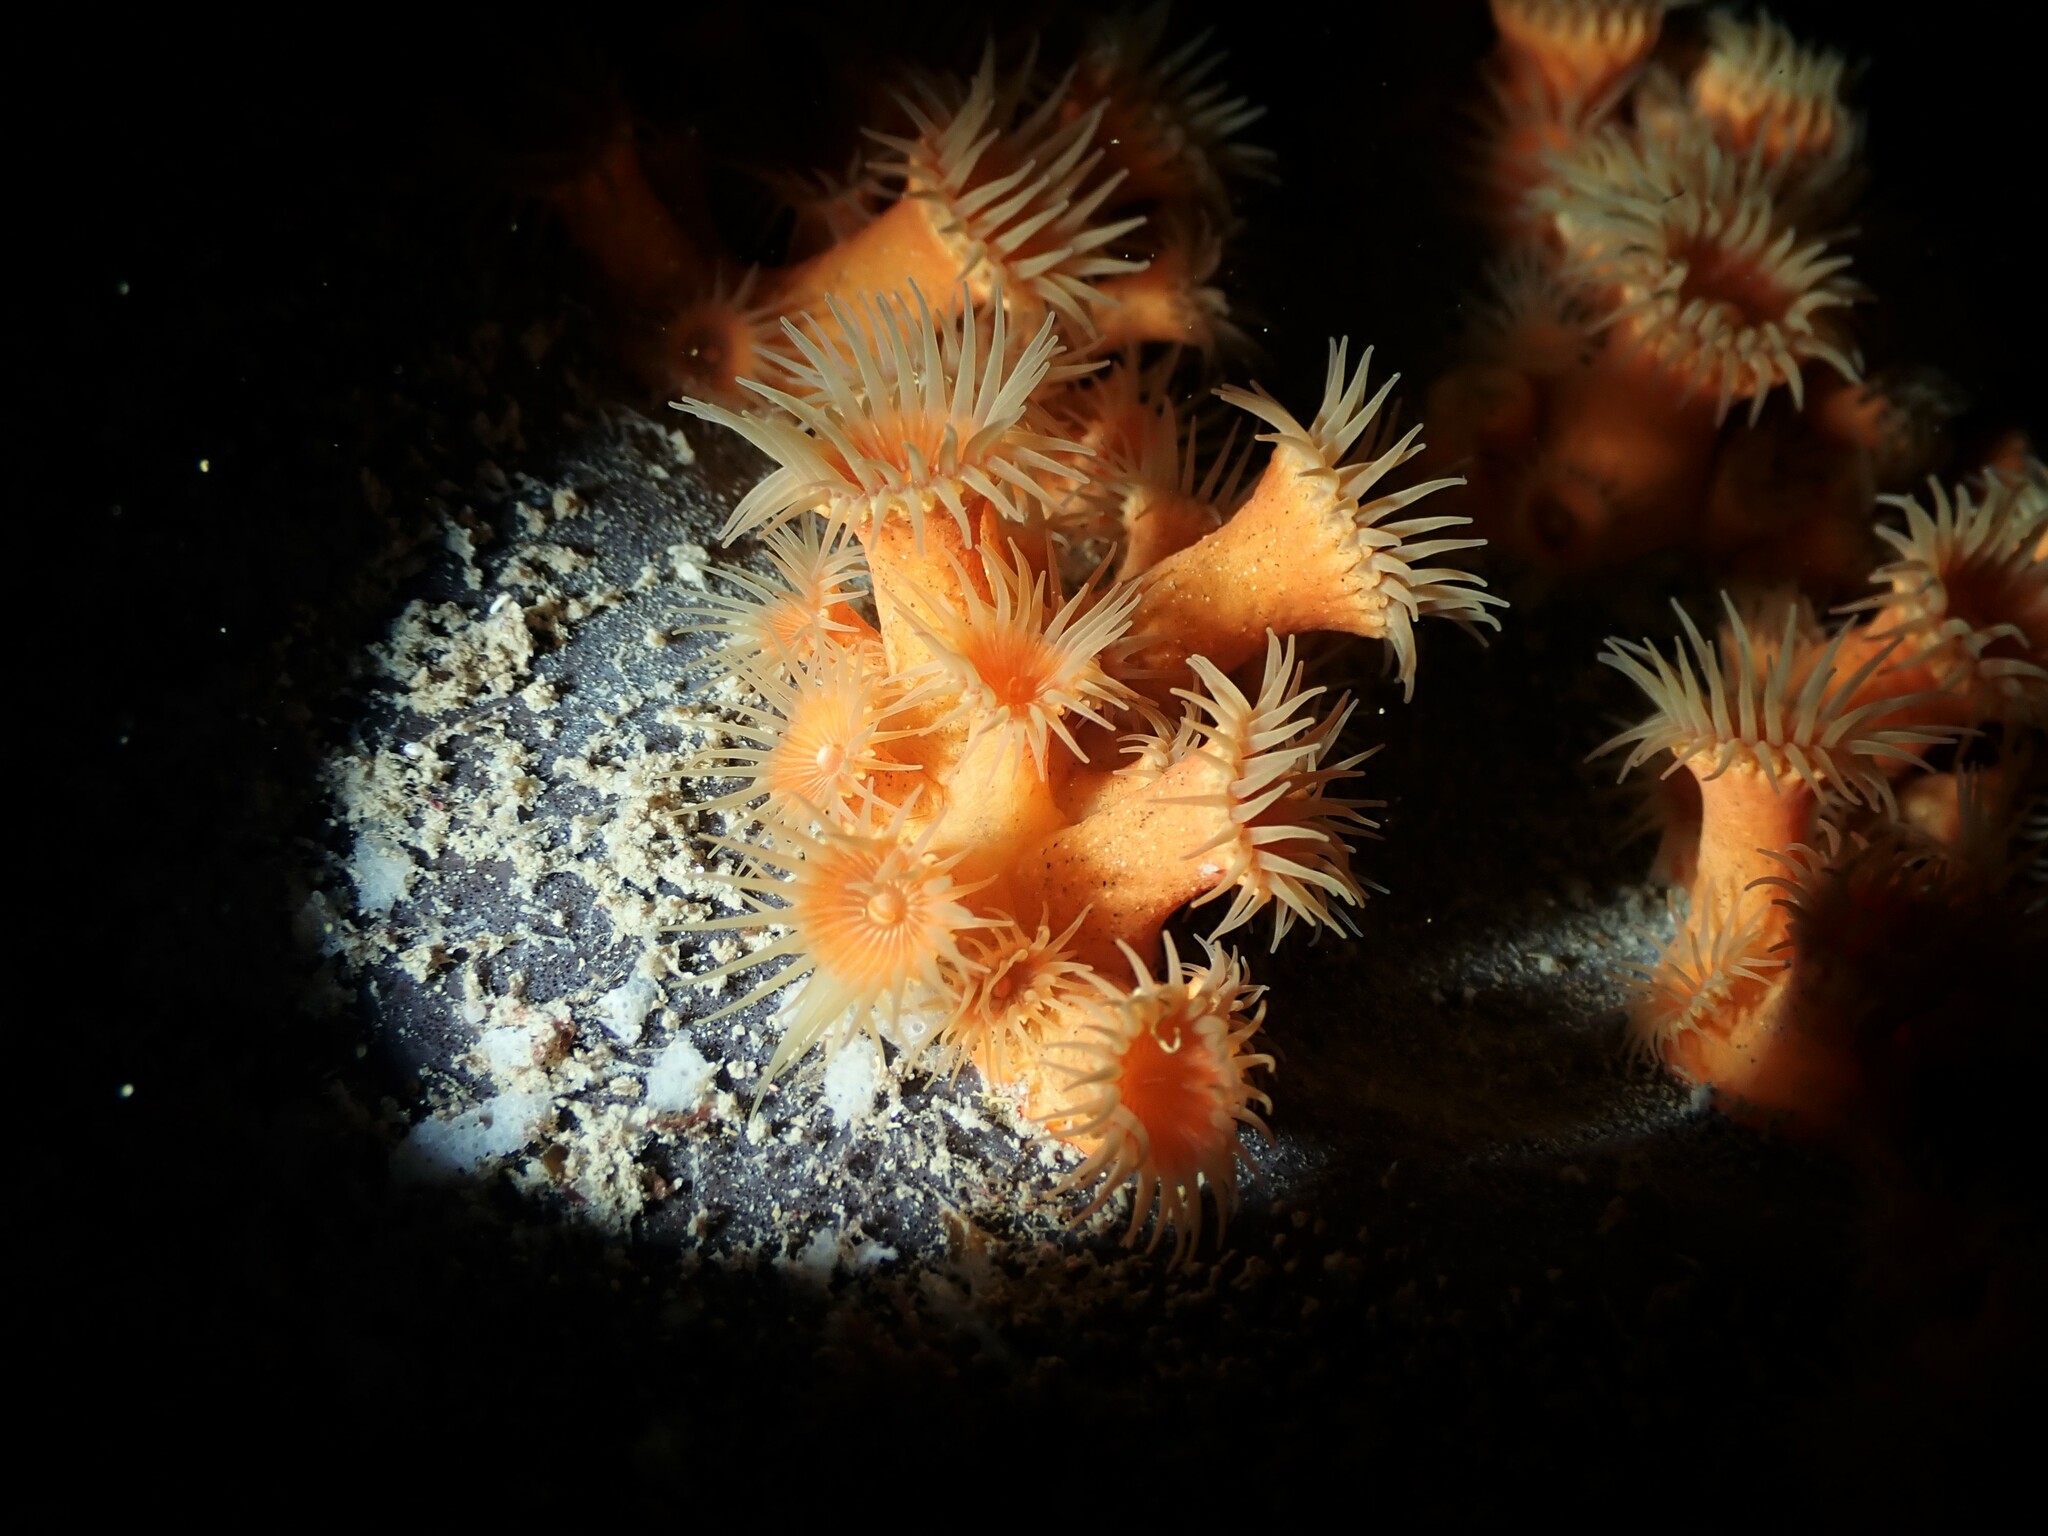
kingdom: Animalia
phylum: Cnidaria
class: Anthozoa
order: Zoantharia
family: Parazoanthidae
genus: Parazoanthus
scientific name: Parazoanthus elongatus
